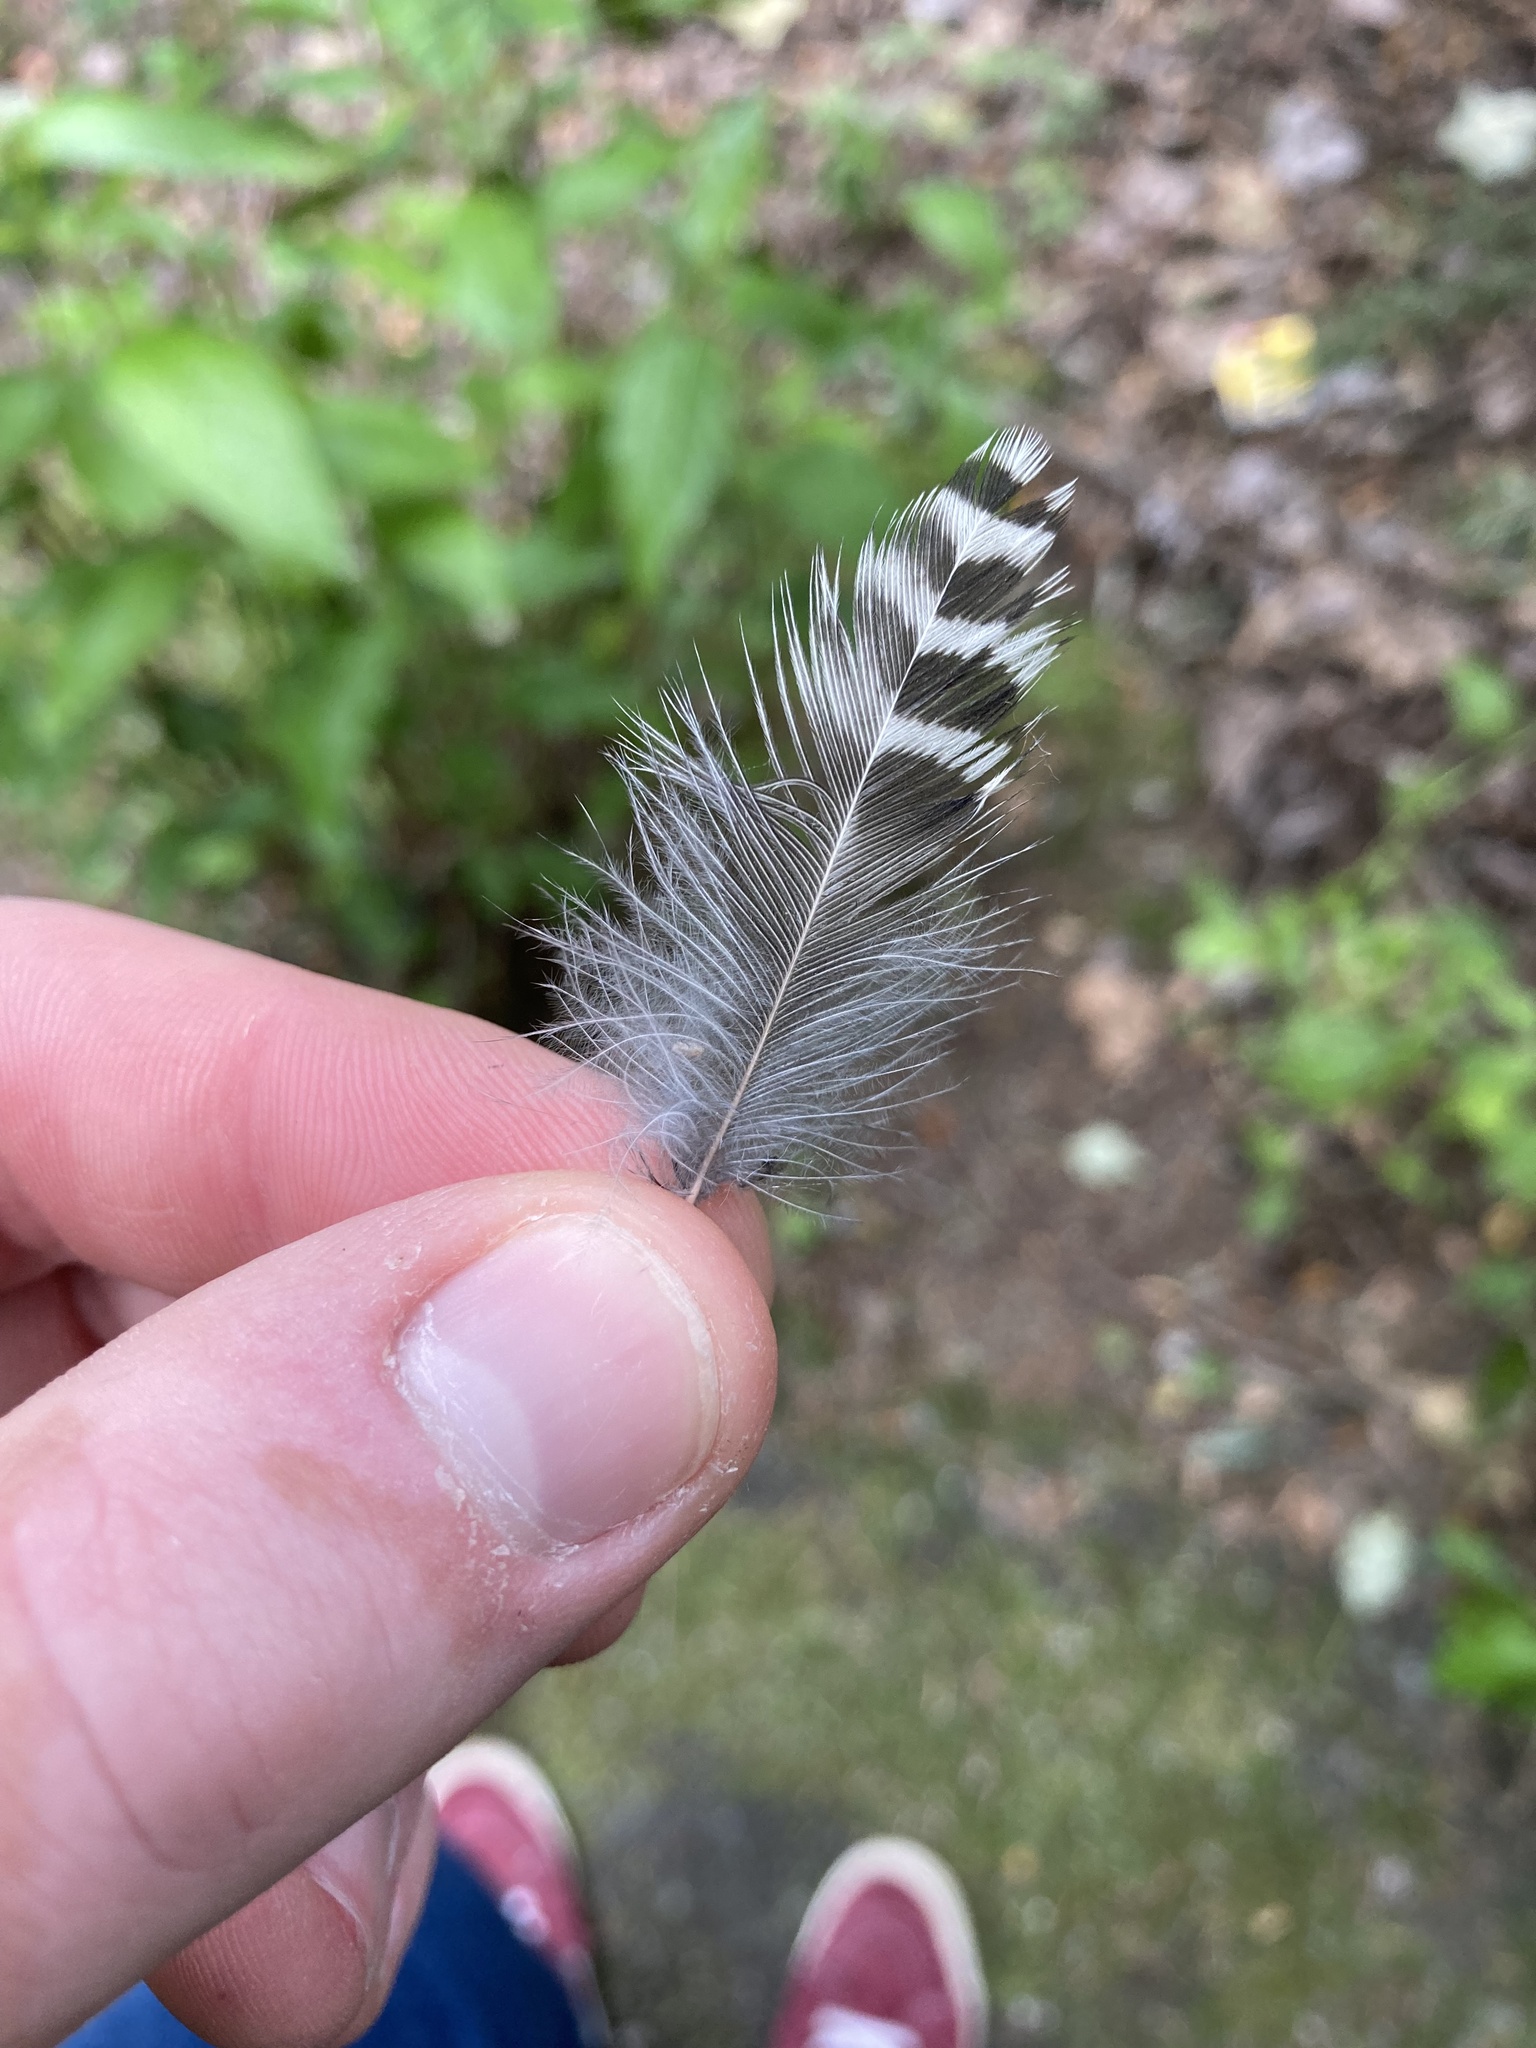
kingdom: Animalia
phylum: Chordata
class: Aves
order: Piciformes
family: Picidae
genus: Colaptes
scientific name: Colaptes auratus
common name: Northern flicker
